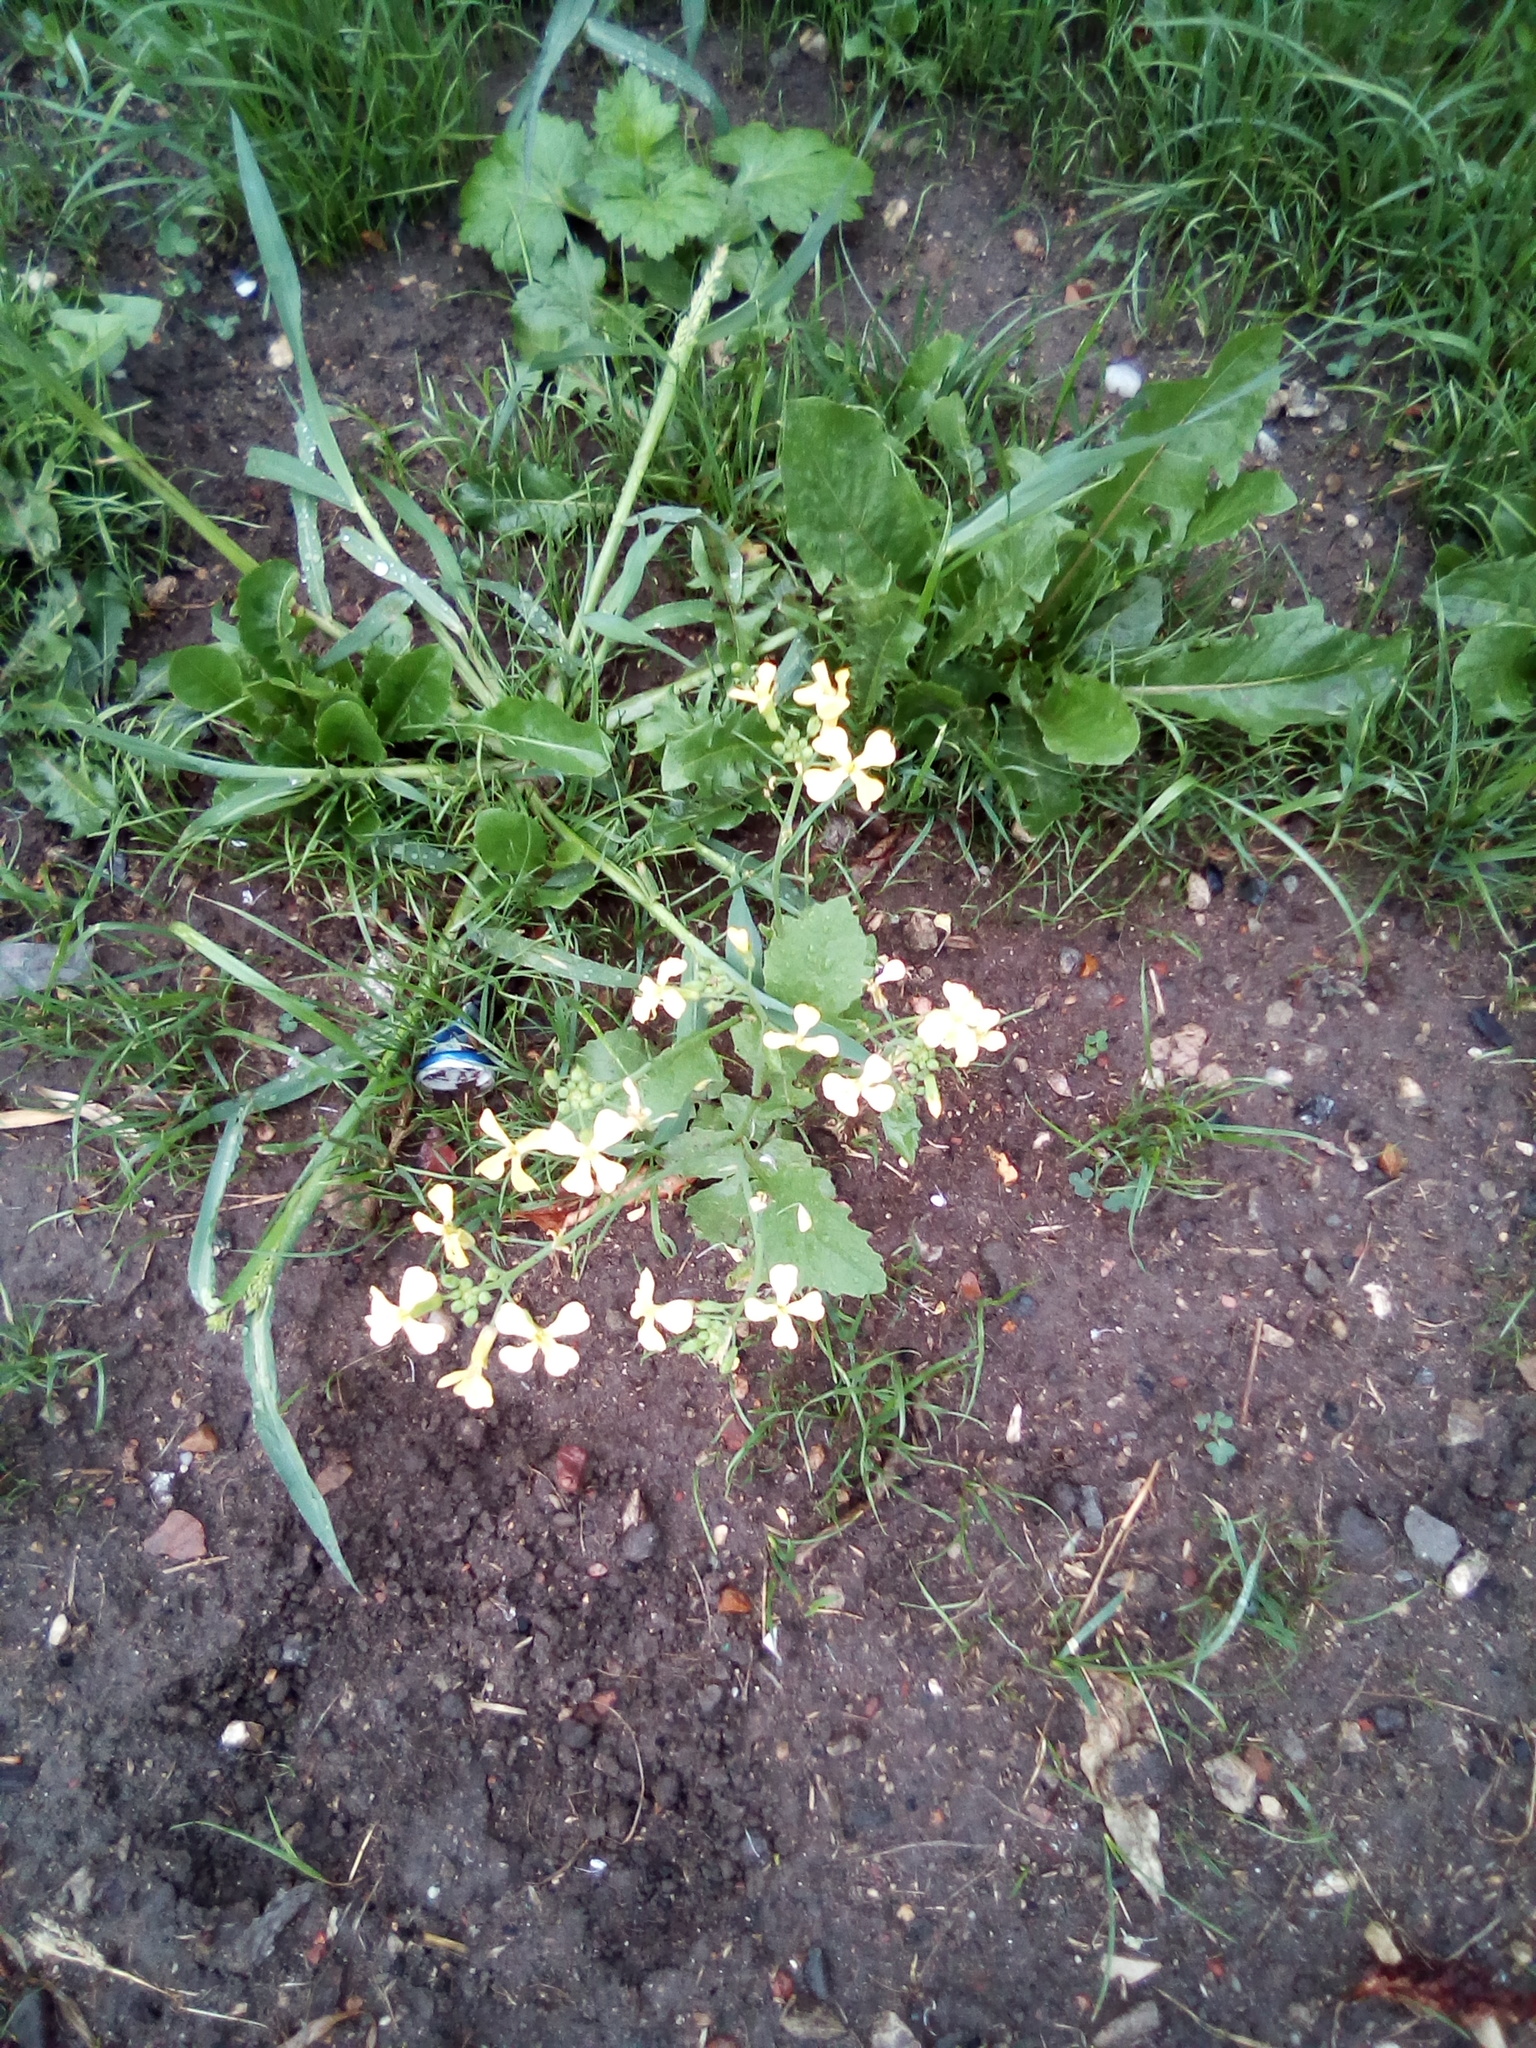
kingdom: Plantae
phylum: Tracheophyta
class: Magnoliopsida
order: Brassicales
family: Brassicaceae
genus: Raphanus
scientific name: Raphanus raphanistrum
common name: Wild radish
